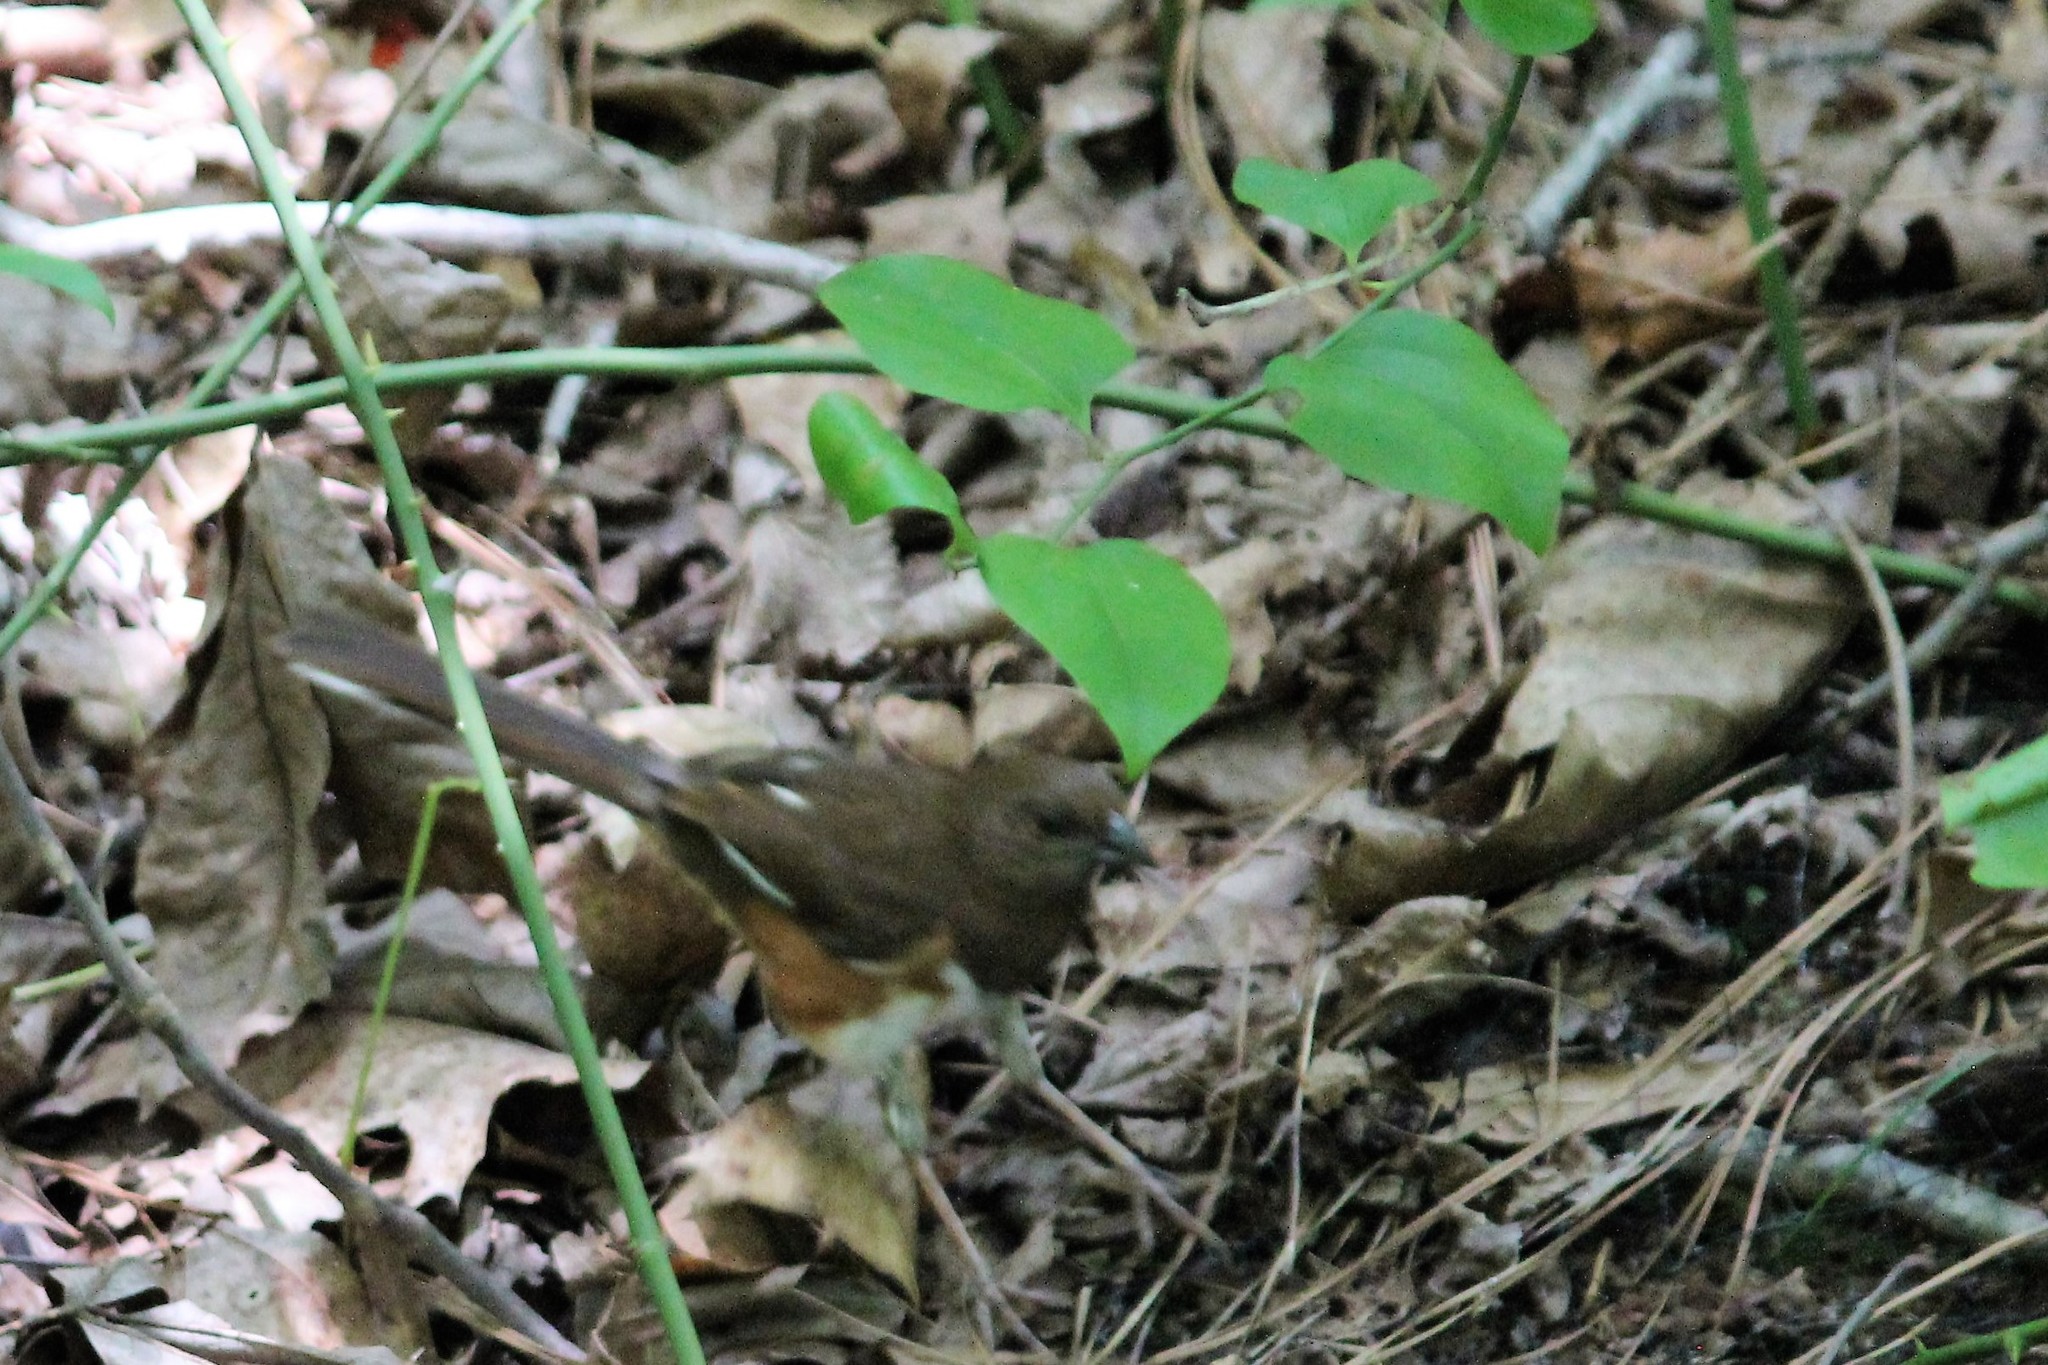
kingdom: Animalia
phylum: Chordata
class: Aves
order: Passeriformes
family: Passerellidae
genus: Pipilo
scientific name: Pipilo erythrophthalmus
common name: Eastern towhee
